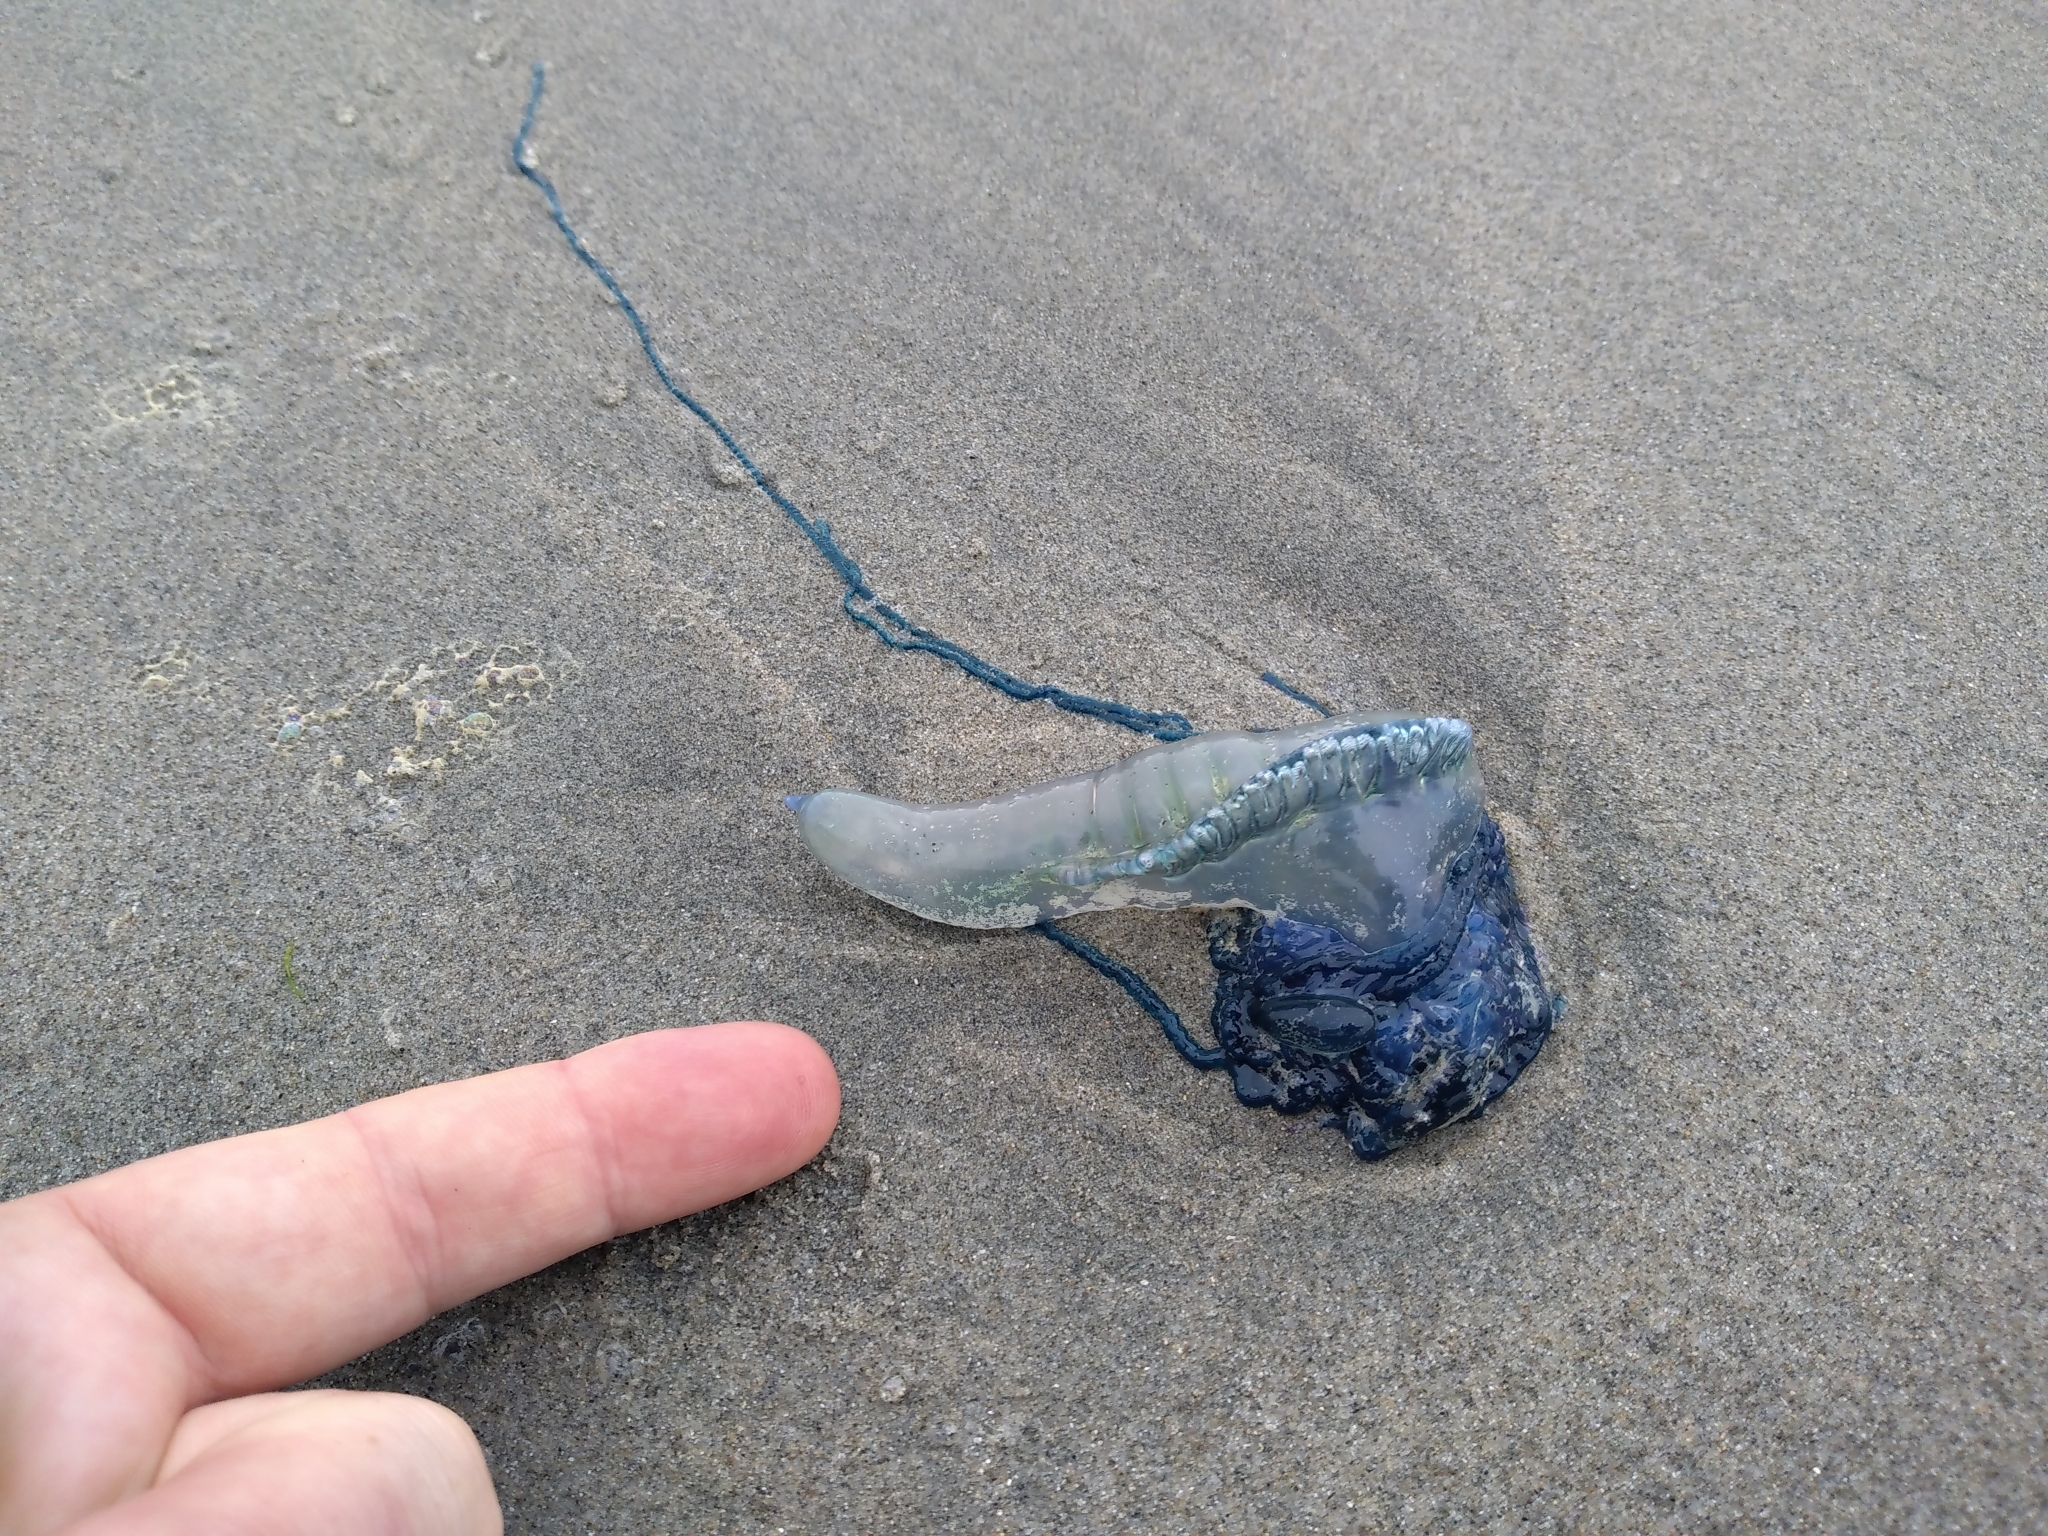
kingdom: Animalia
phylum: Cnidaria
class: Hydrozoa
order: Siphonophorae
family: Physaliidae
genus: Physalia
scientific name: Physalia physalis
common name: Portuguese man-of-war
